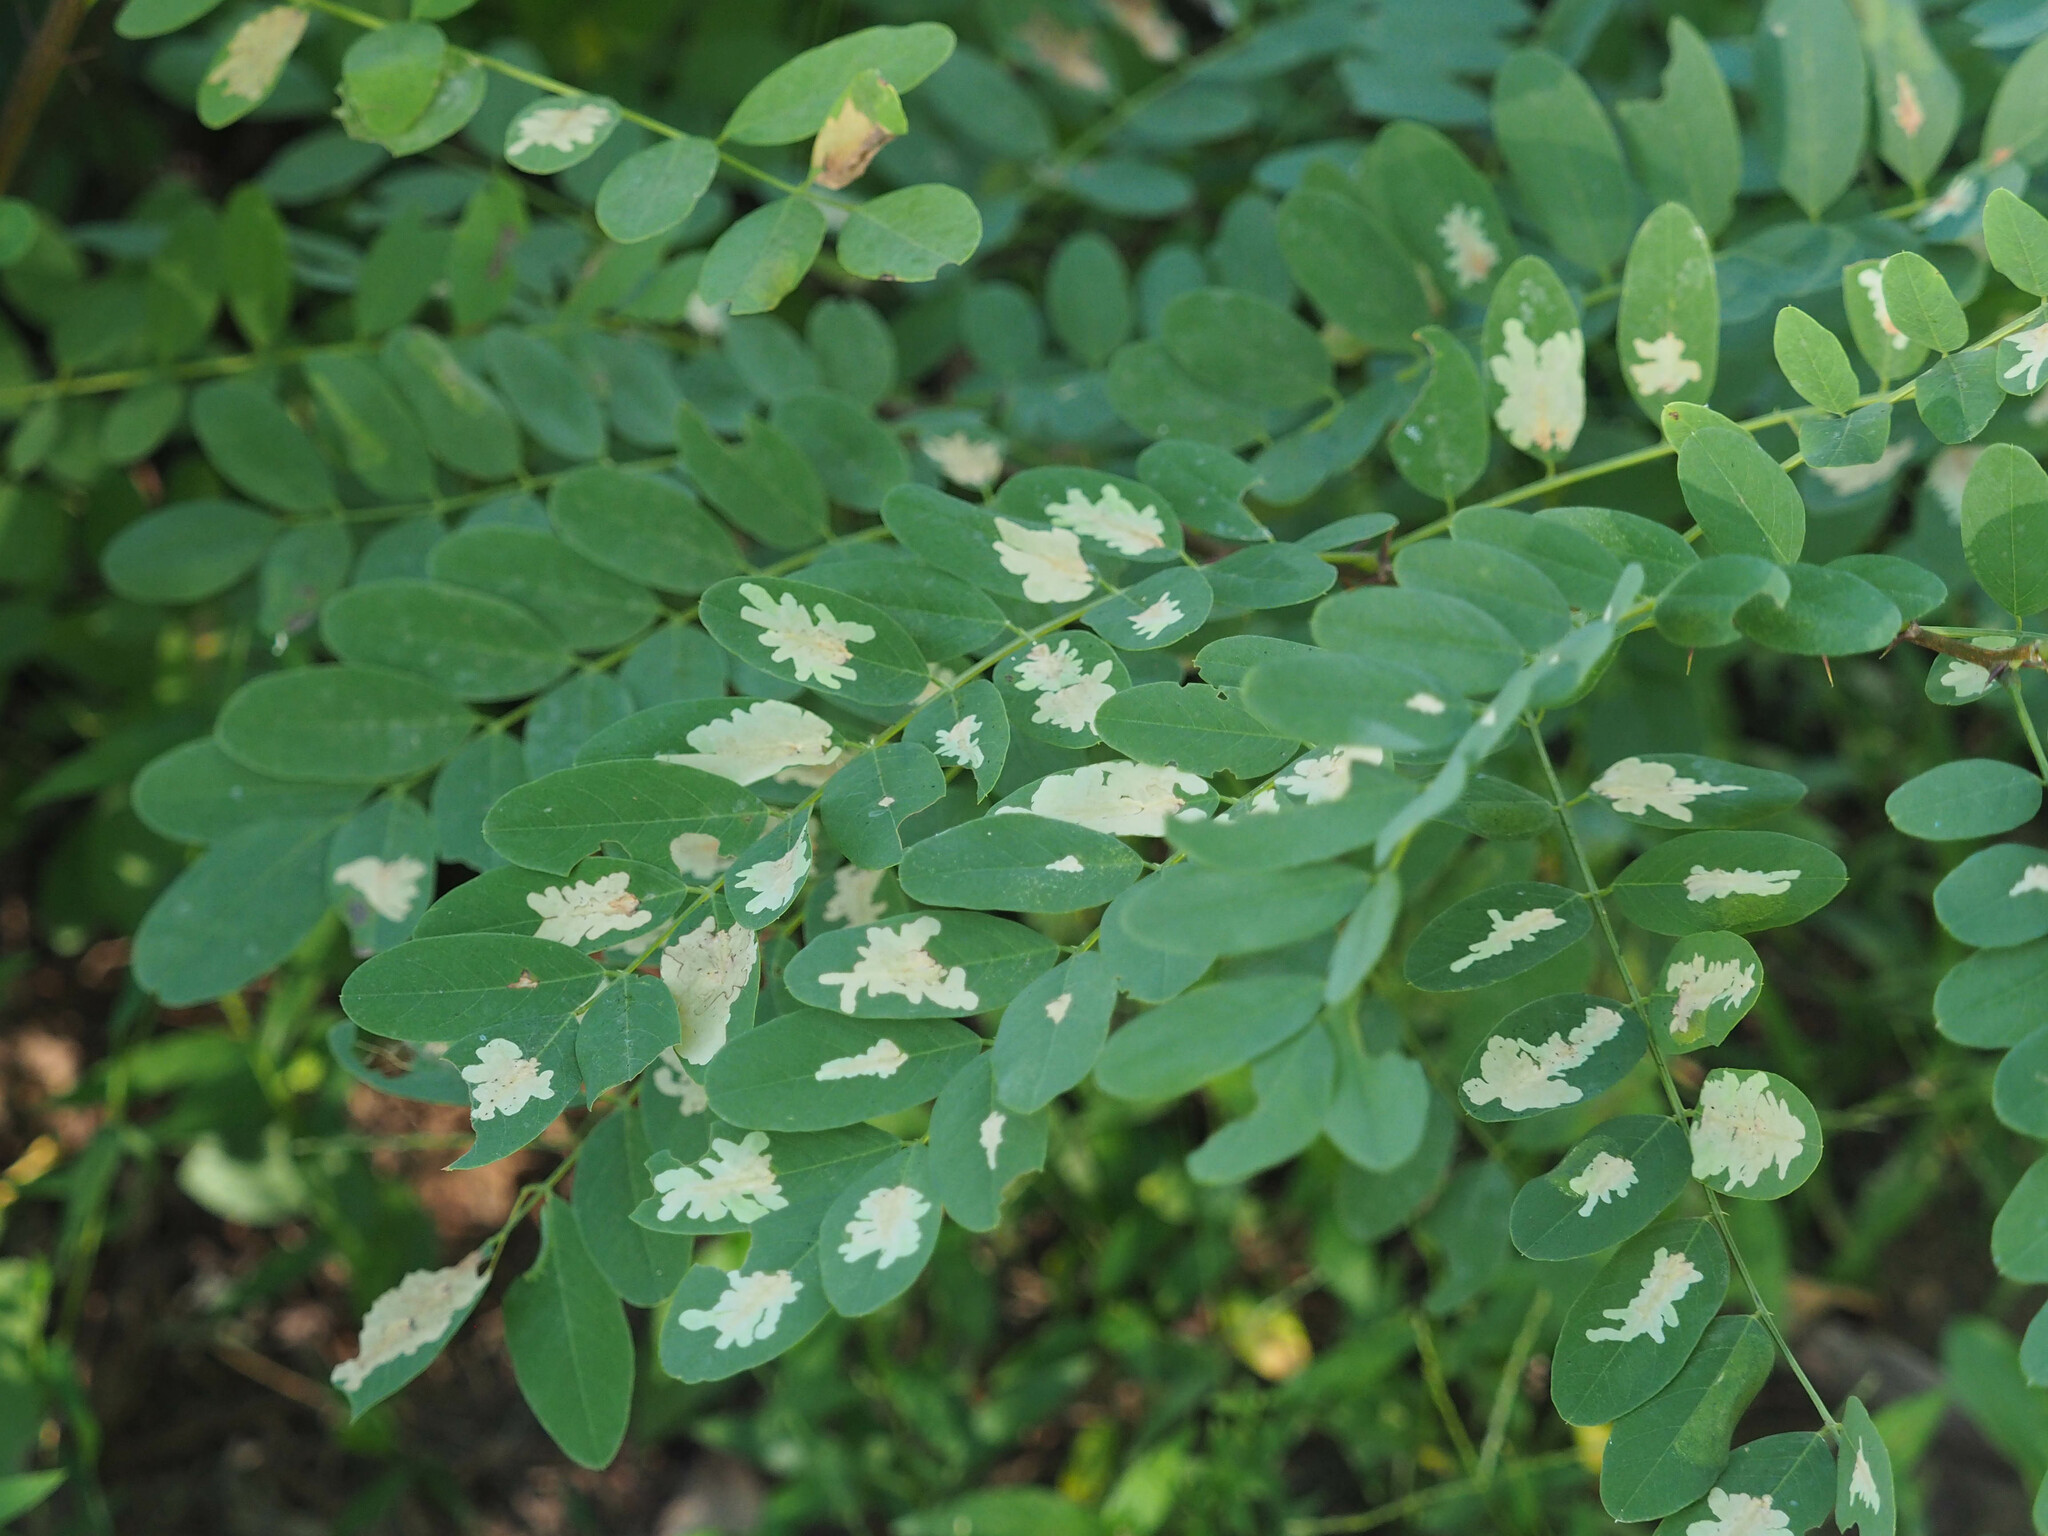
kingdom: Animalia
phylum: Arthropoda
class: Insecta
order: Lepidoptera
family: Gracillariidae
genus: Parectopa
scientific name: Parectopa robiniella
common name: Locust digitate leafminer
